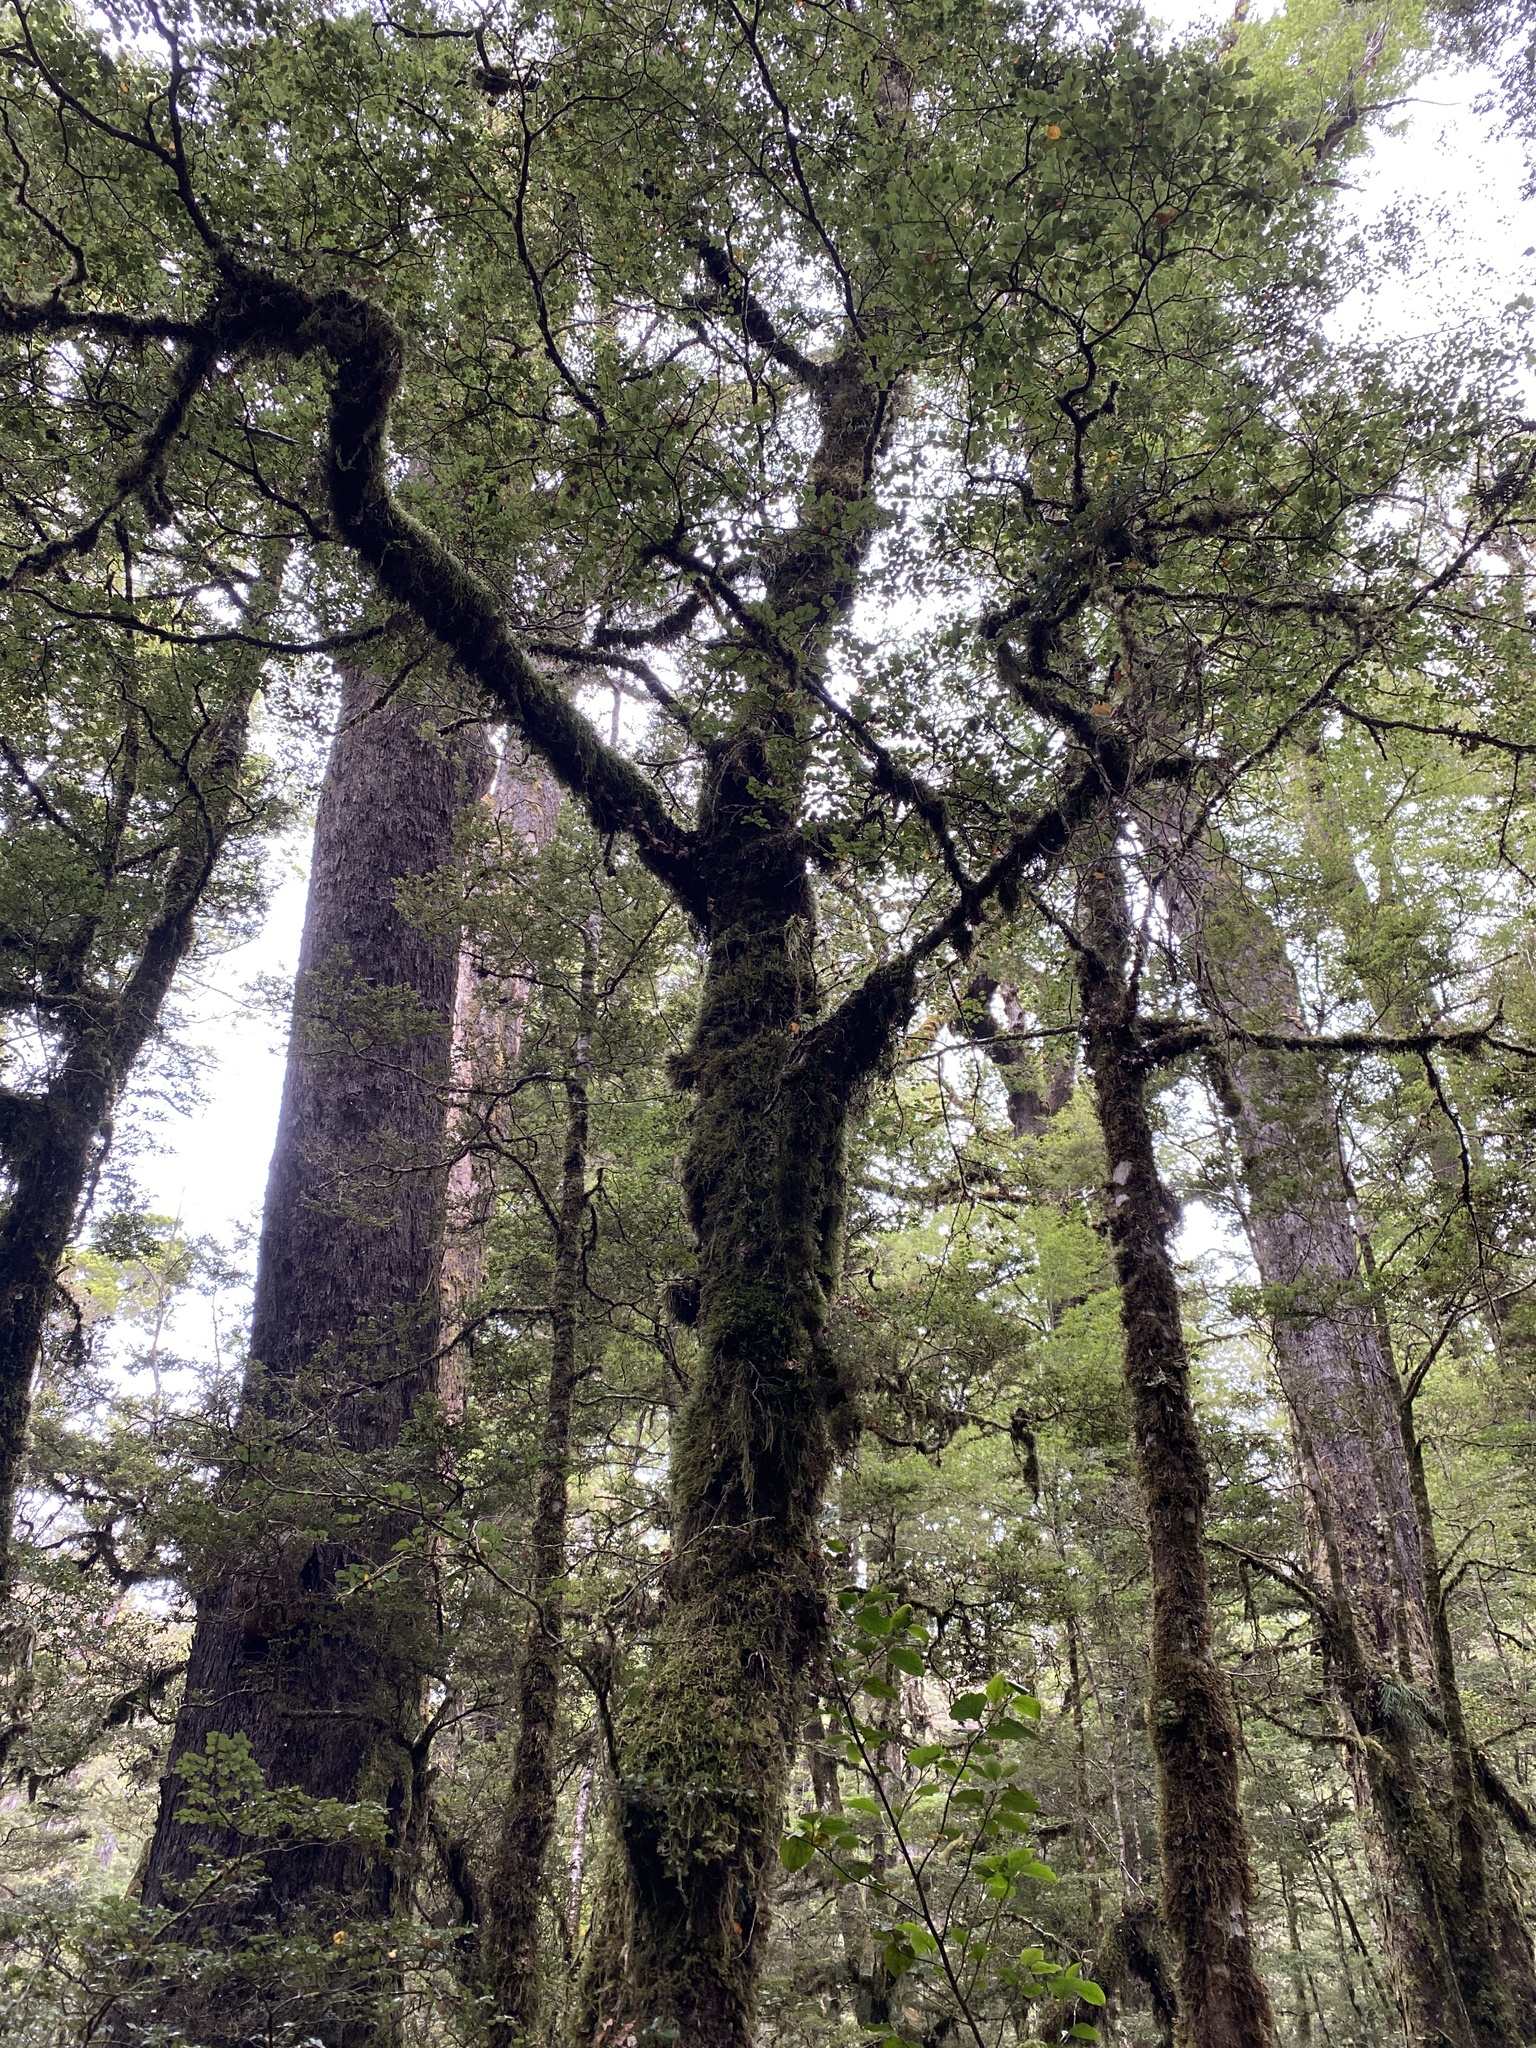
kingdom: Plantae
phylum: Tracheophyta
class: Magnoliopsida
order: Fagales
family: Nothofagaceae
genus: Nothofagus
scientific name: Nothofagus menziesii
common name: Silver beech
